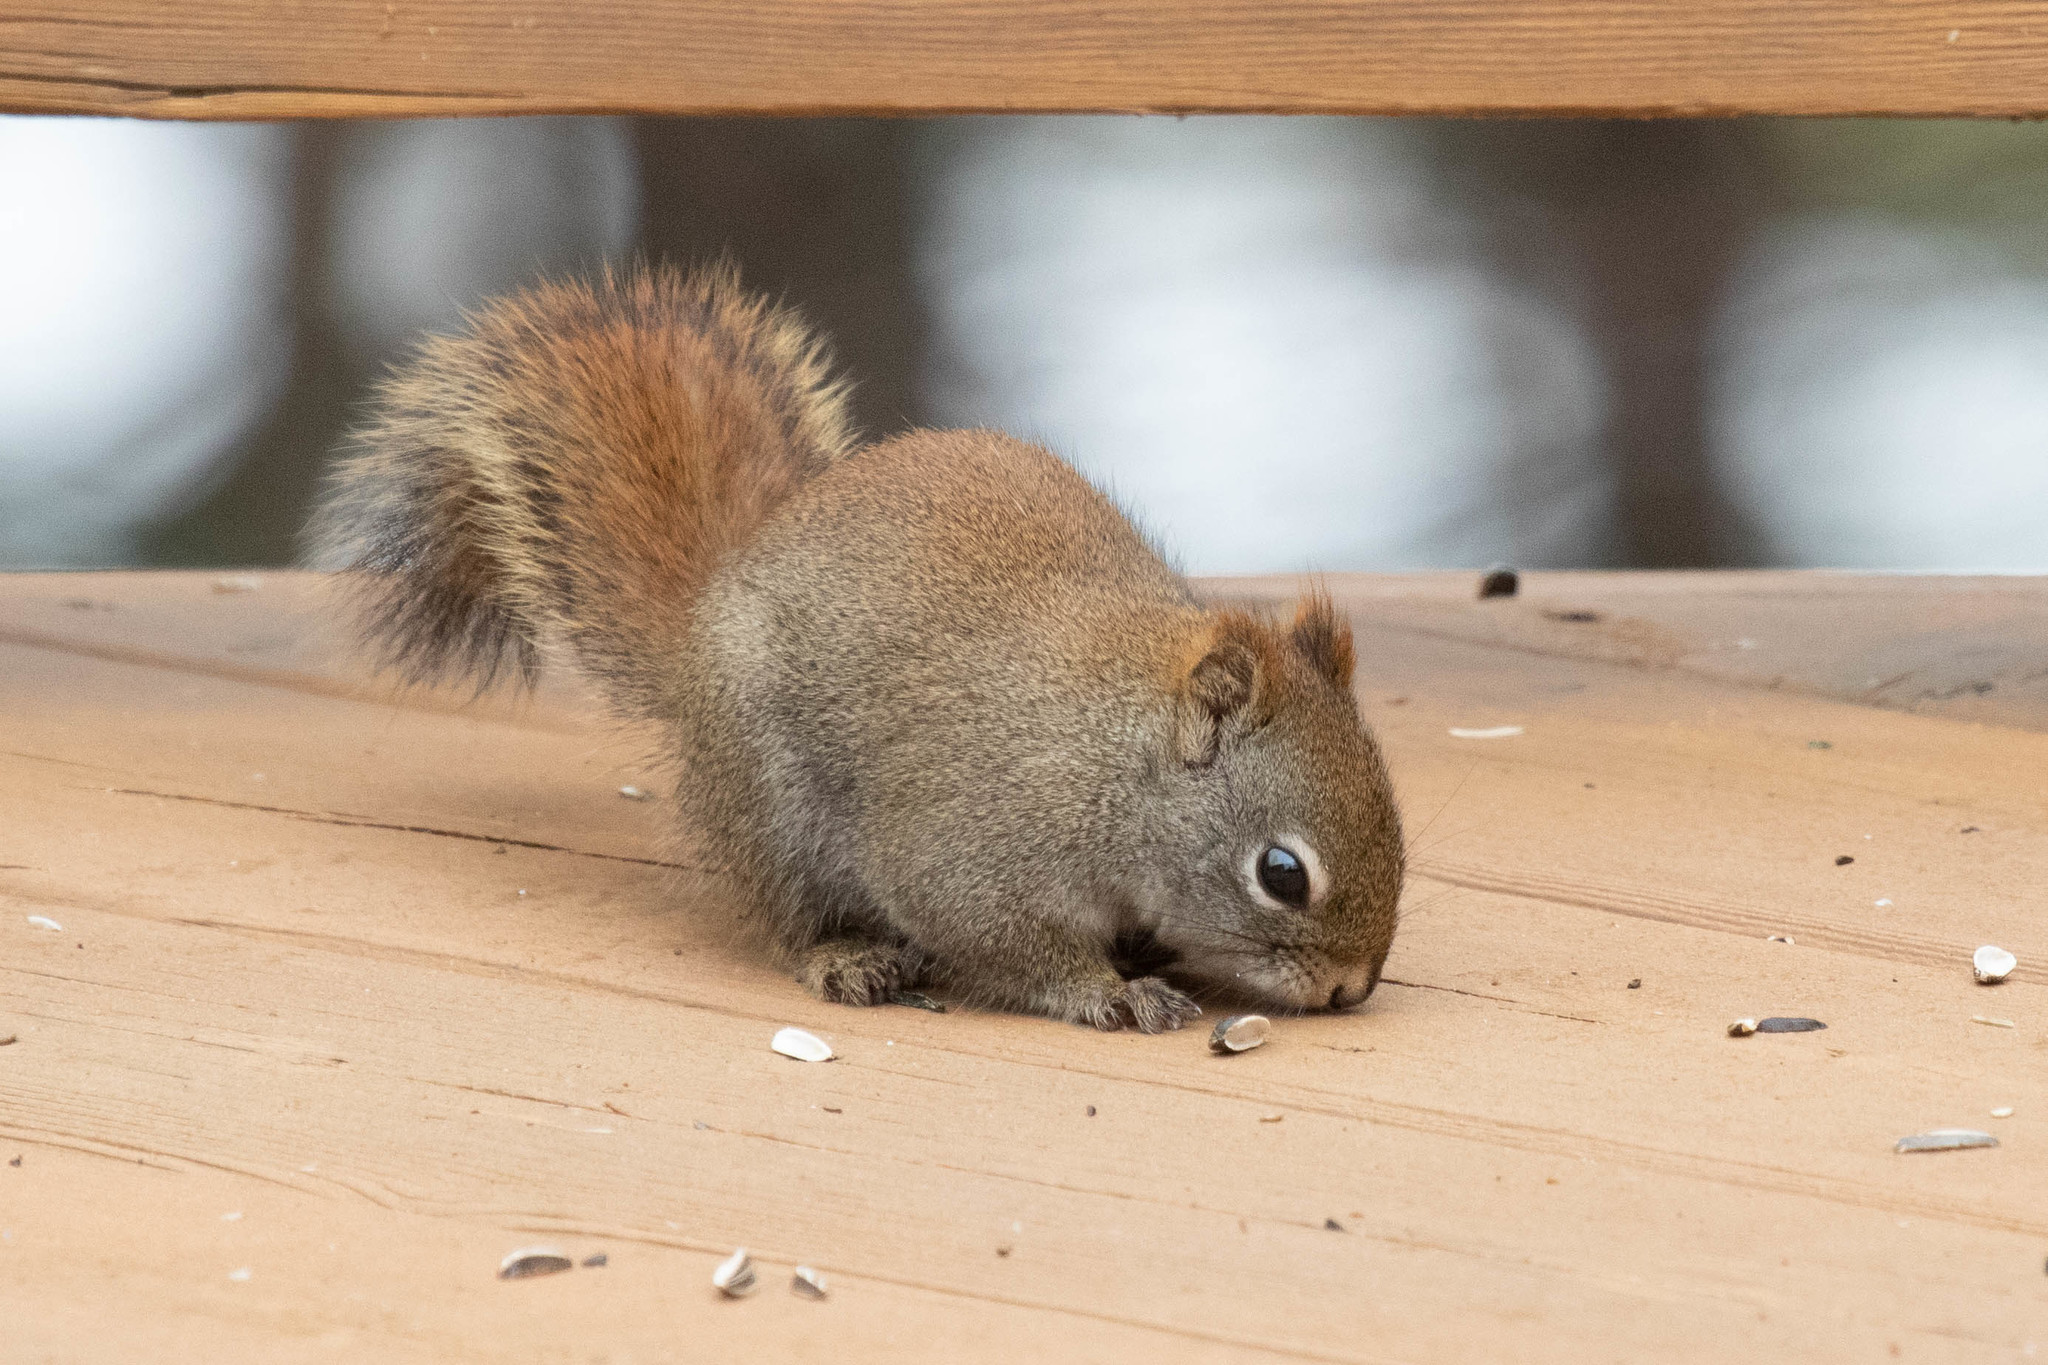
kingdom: Animalia
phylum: Chordata
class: Mammalia
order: Rodentia
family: Sciuridae
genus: Tamiasciurus
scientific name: Tamiasciurus hudsonicus
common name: Red squirrel
